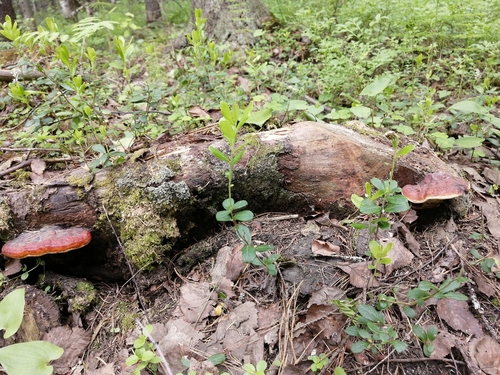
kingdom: Fungi
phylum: Basidiomycota
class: Agaricomycetes
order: Polyporales
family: Fomitopsidaceae
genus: Fomitopsis
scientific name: Fomitopsis pinicola
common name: Red-belted bracket
